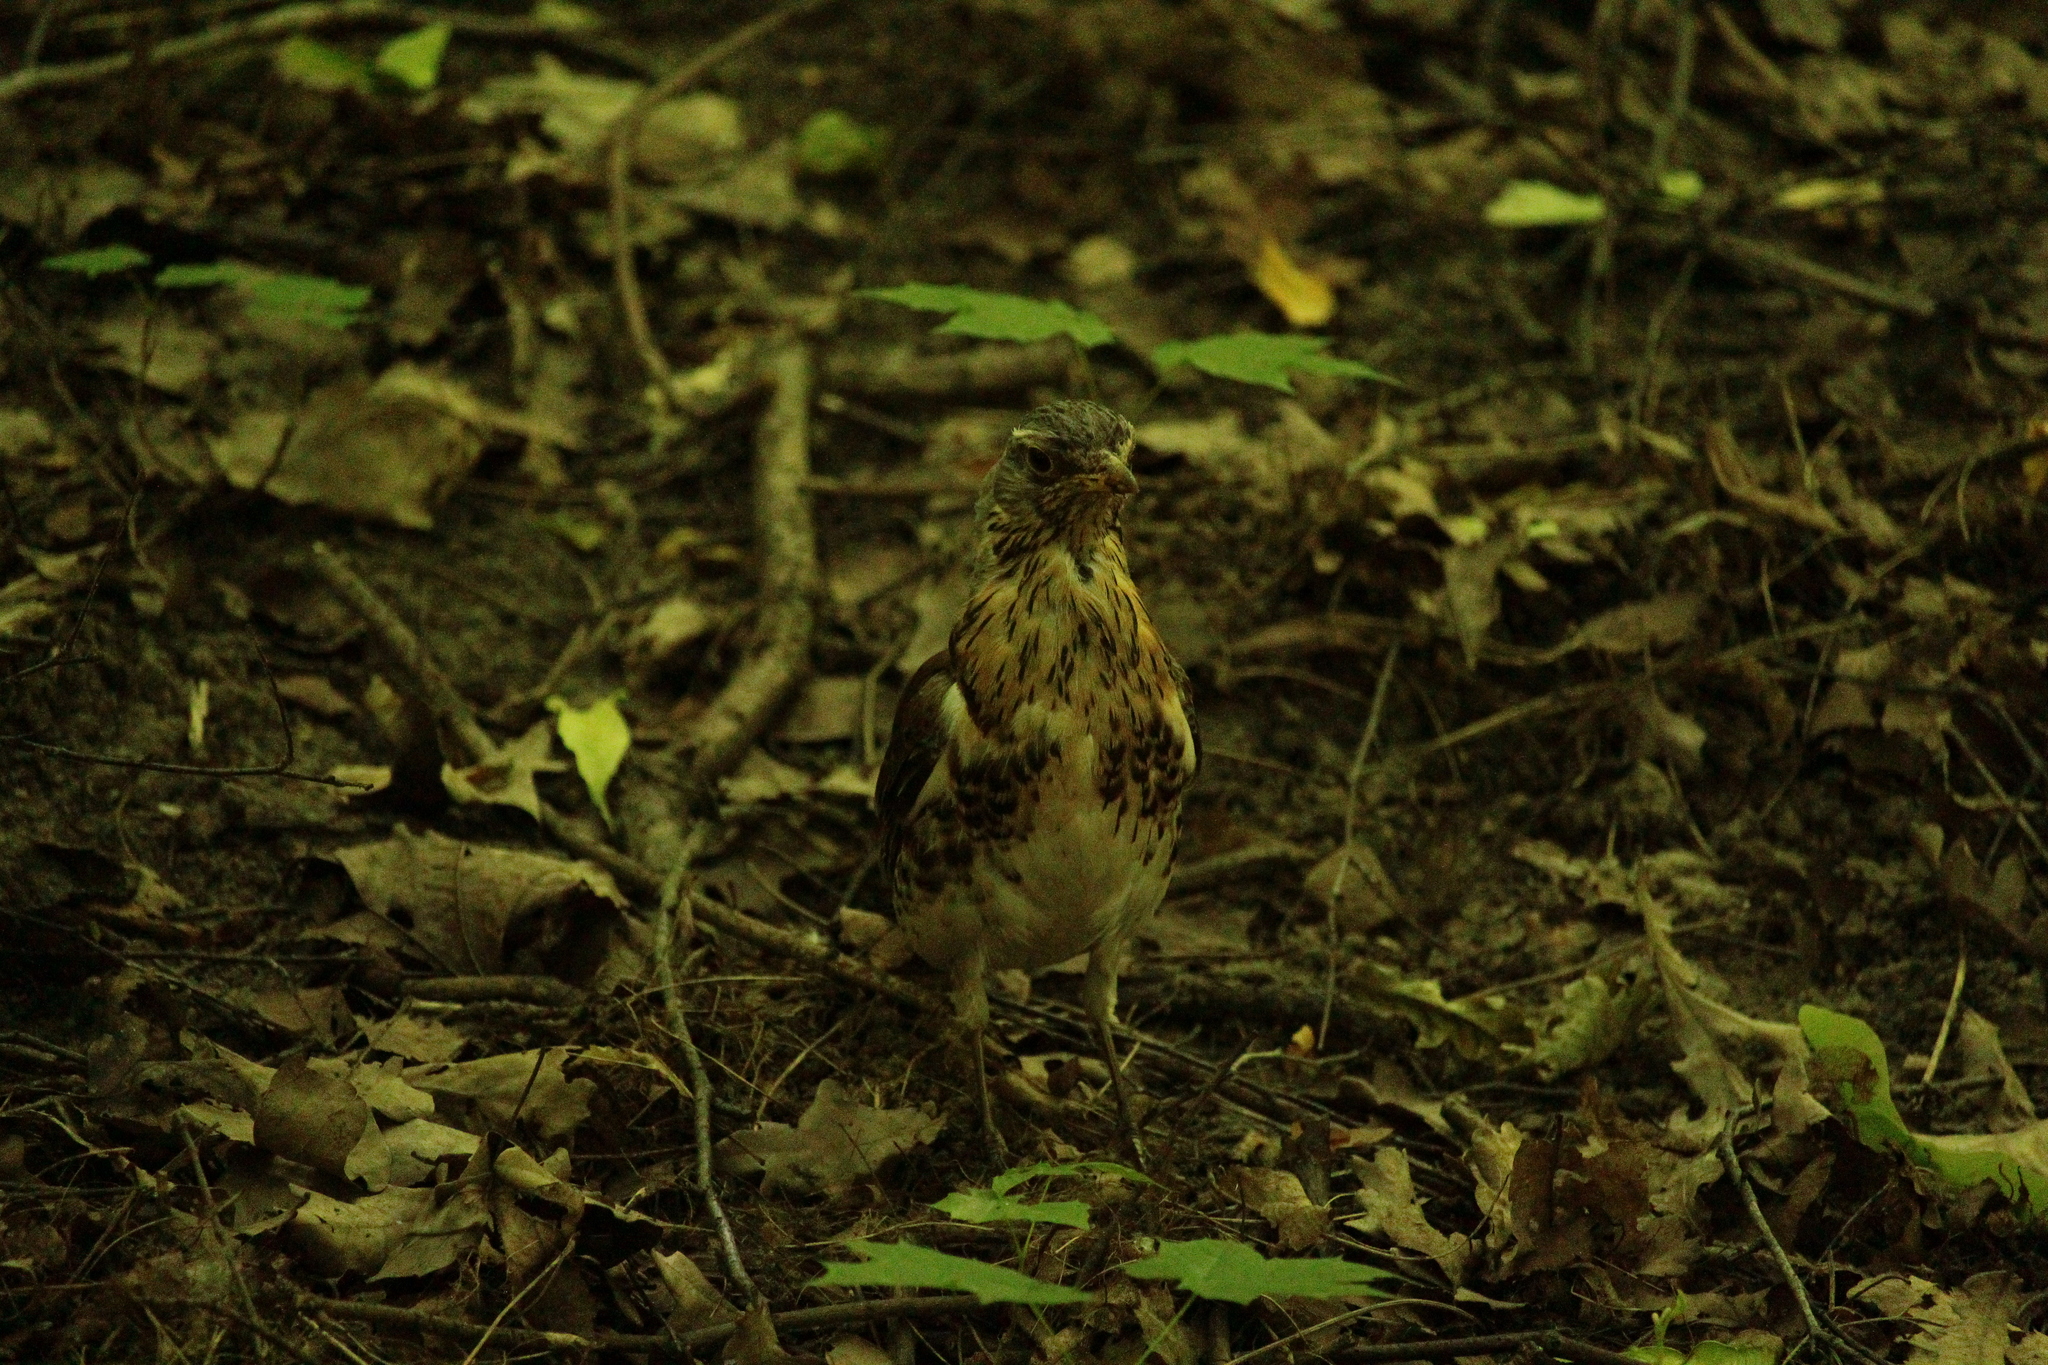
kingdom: Animalia
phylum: Chordata
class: Aves
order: Passeriformes
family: Turdidae
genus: Turdus
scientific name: Turdus pilaris
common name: Fieldfare
